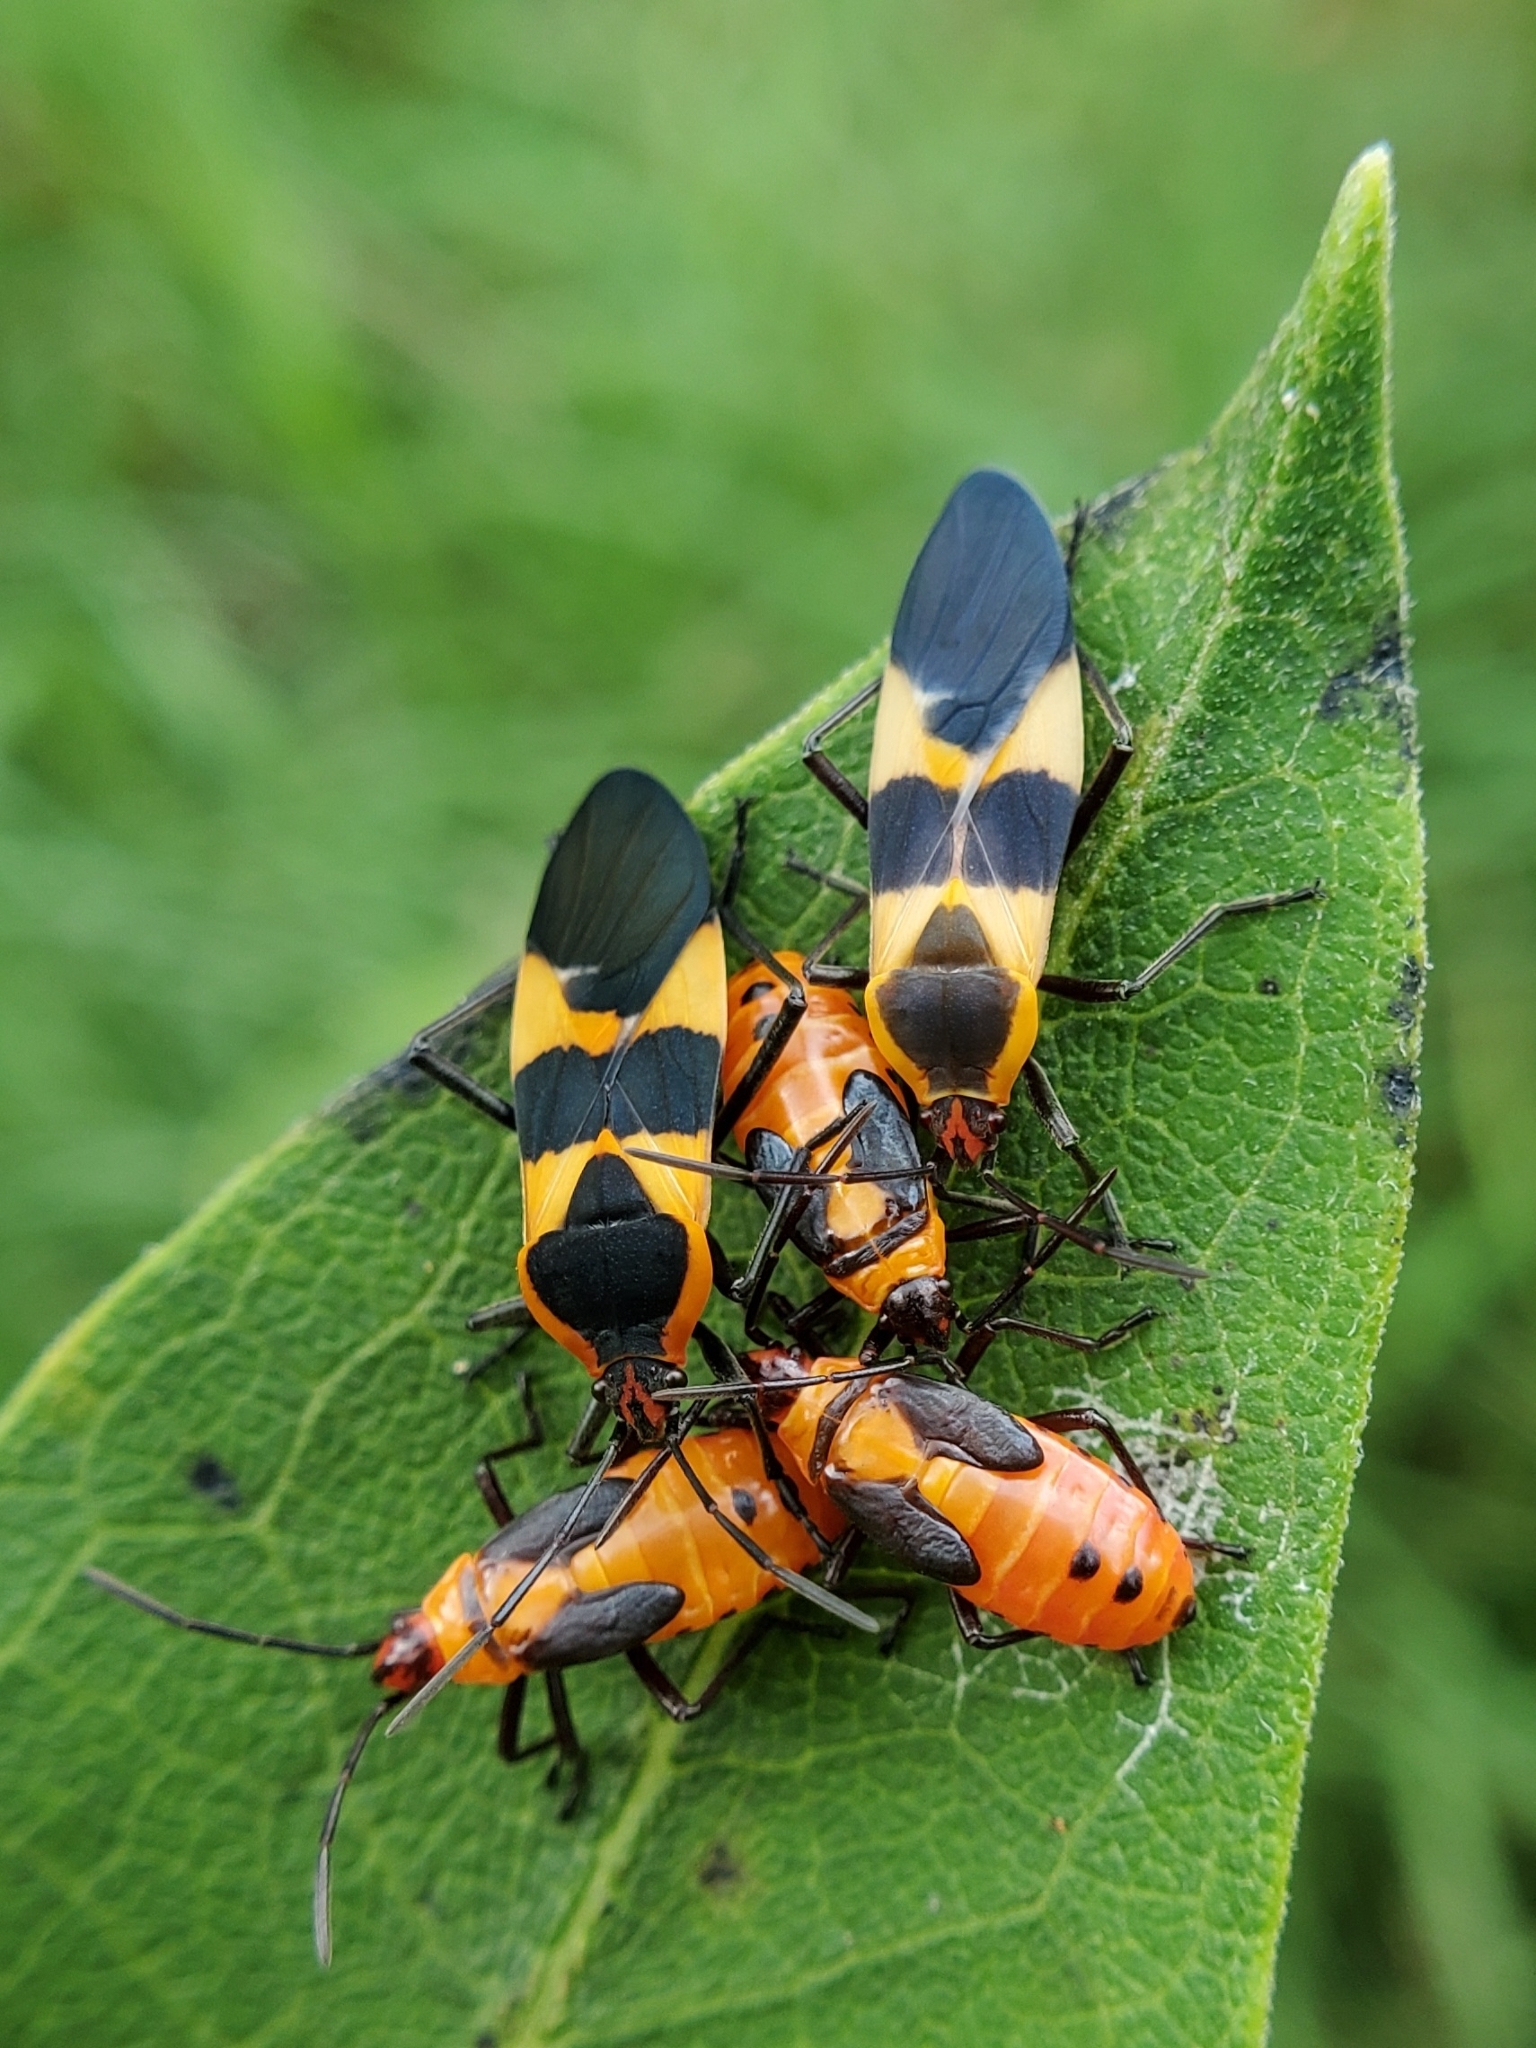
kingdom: Animalia
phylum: Arthropoda
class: Insecta
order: Hemiptera
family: Lygaeidae
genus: Oncopeltus
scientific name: Oncopeltus fasciatus
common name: Large milkweed bug
